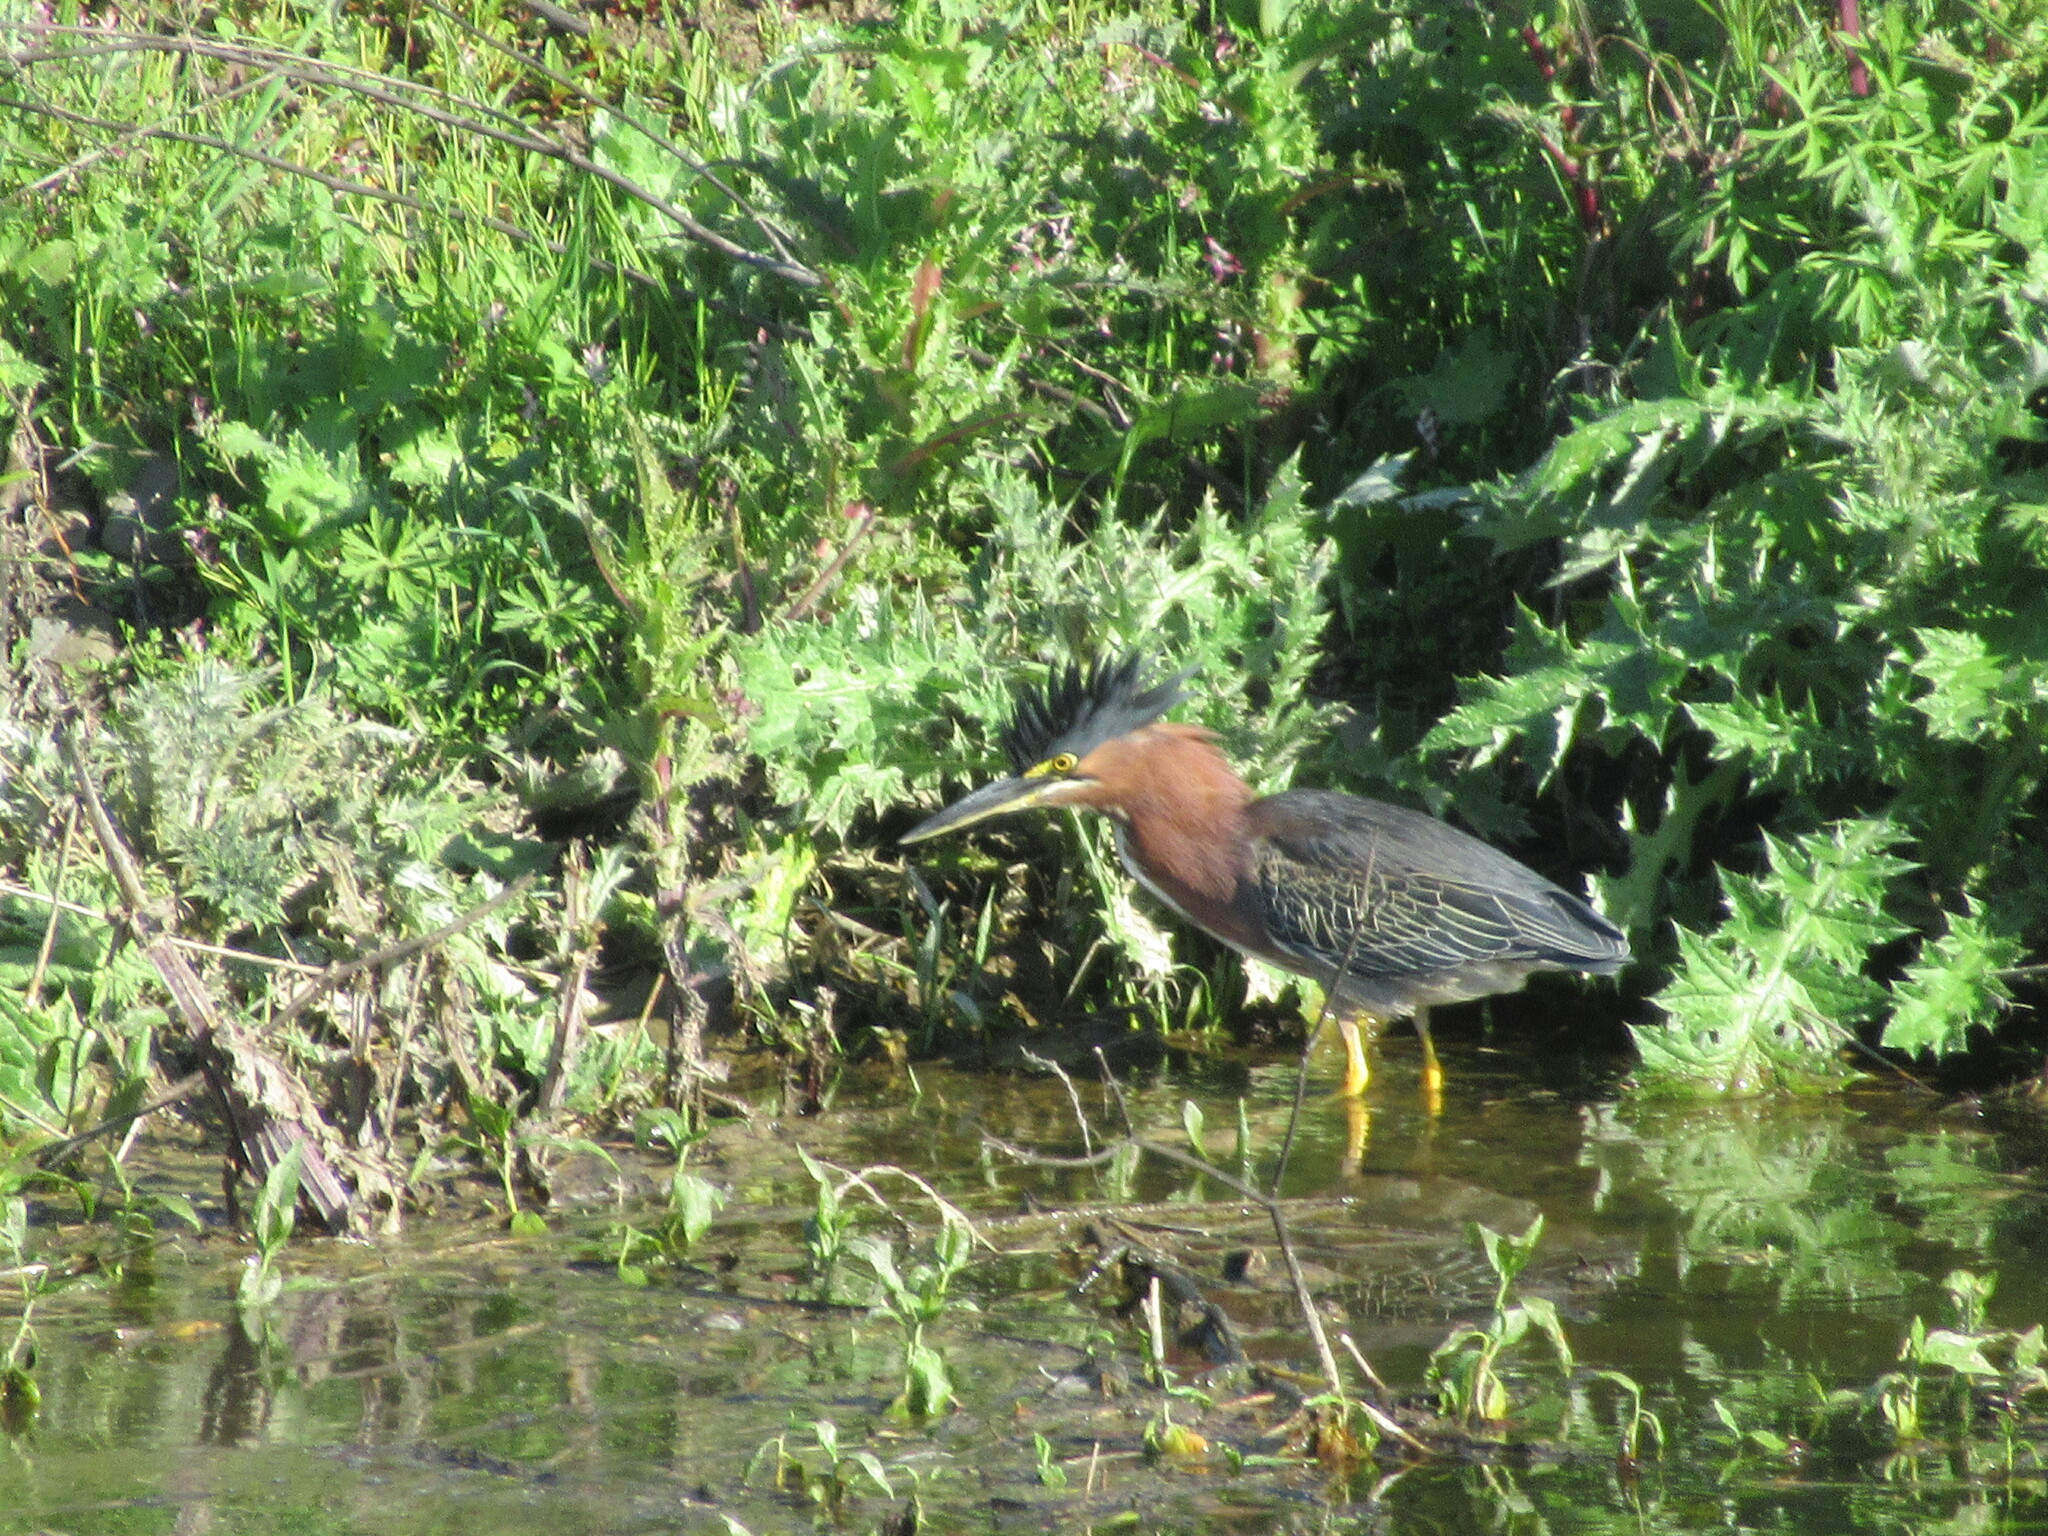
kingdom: Animalia
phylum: Chordata
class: Aves
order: Pelecaniformes
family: Ardeidae
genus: Butorides
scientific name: Butorides virescens
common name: Green heron
